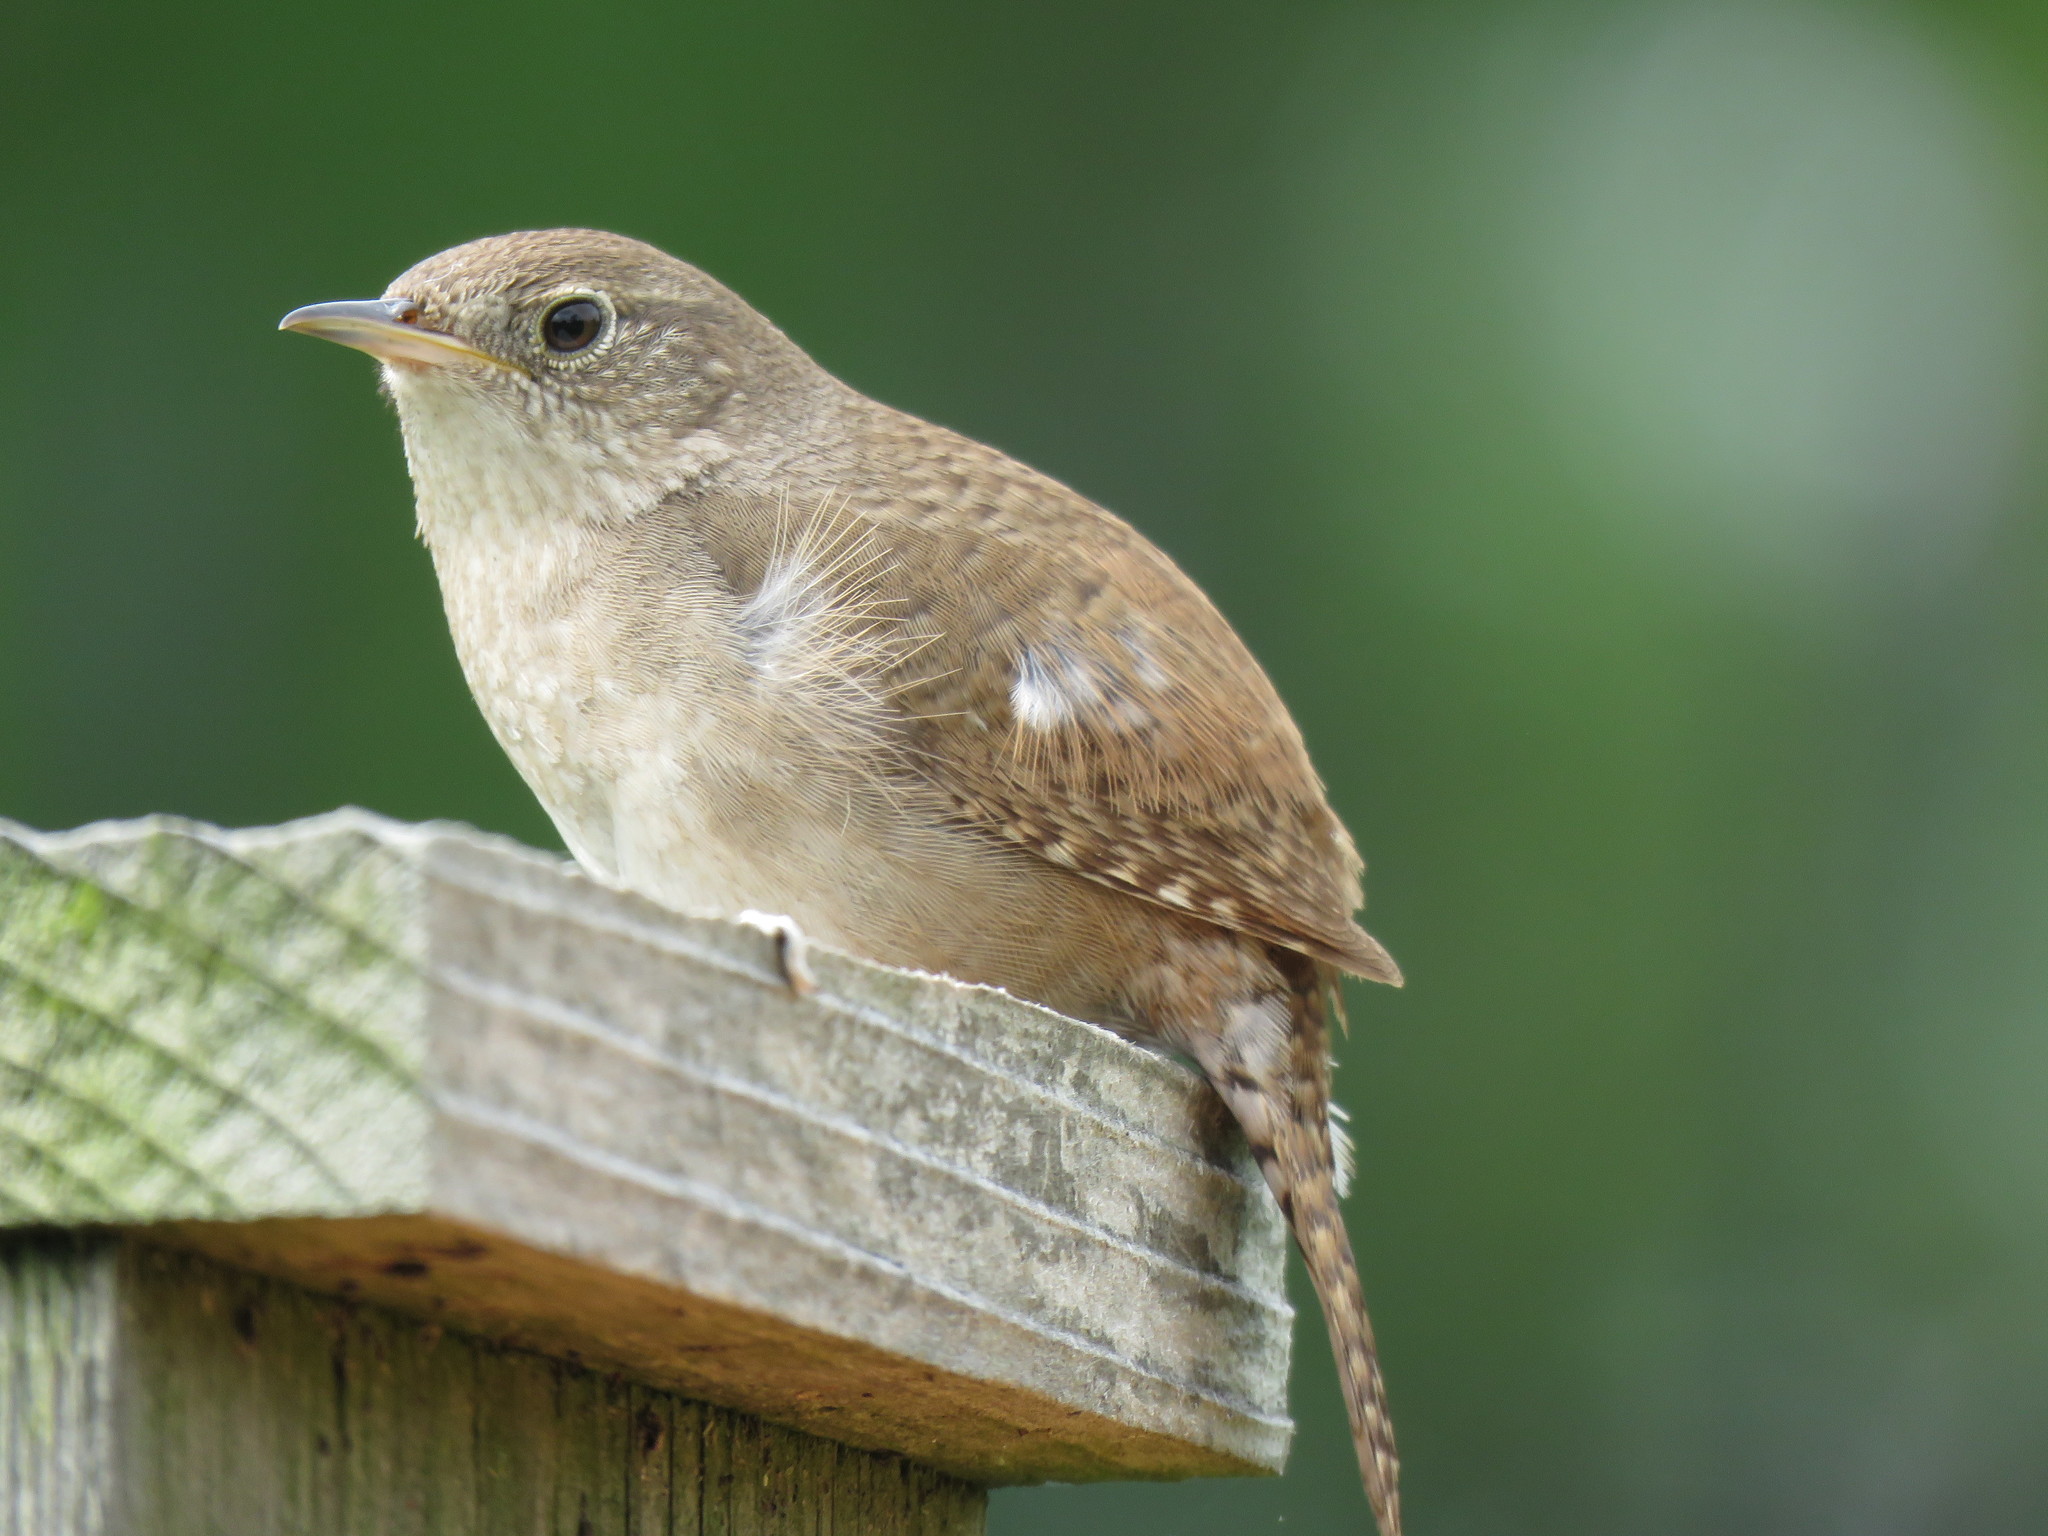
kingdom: Animalia
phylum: Chordata
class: Aves
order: Passeriformes
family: Troglodytidae
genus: Troglodytes
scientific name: Troglodytes aedon
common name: House wren
